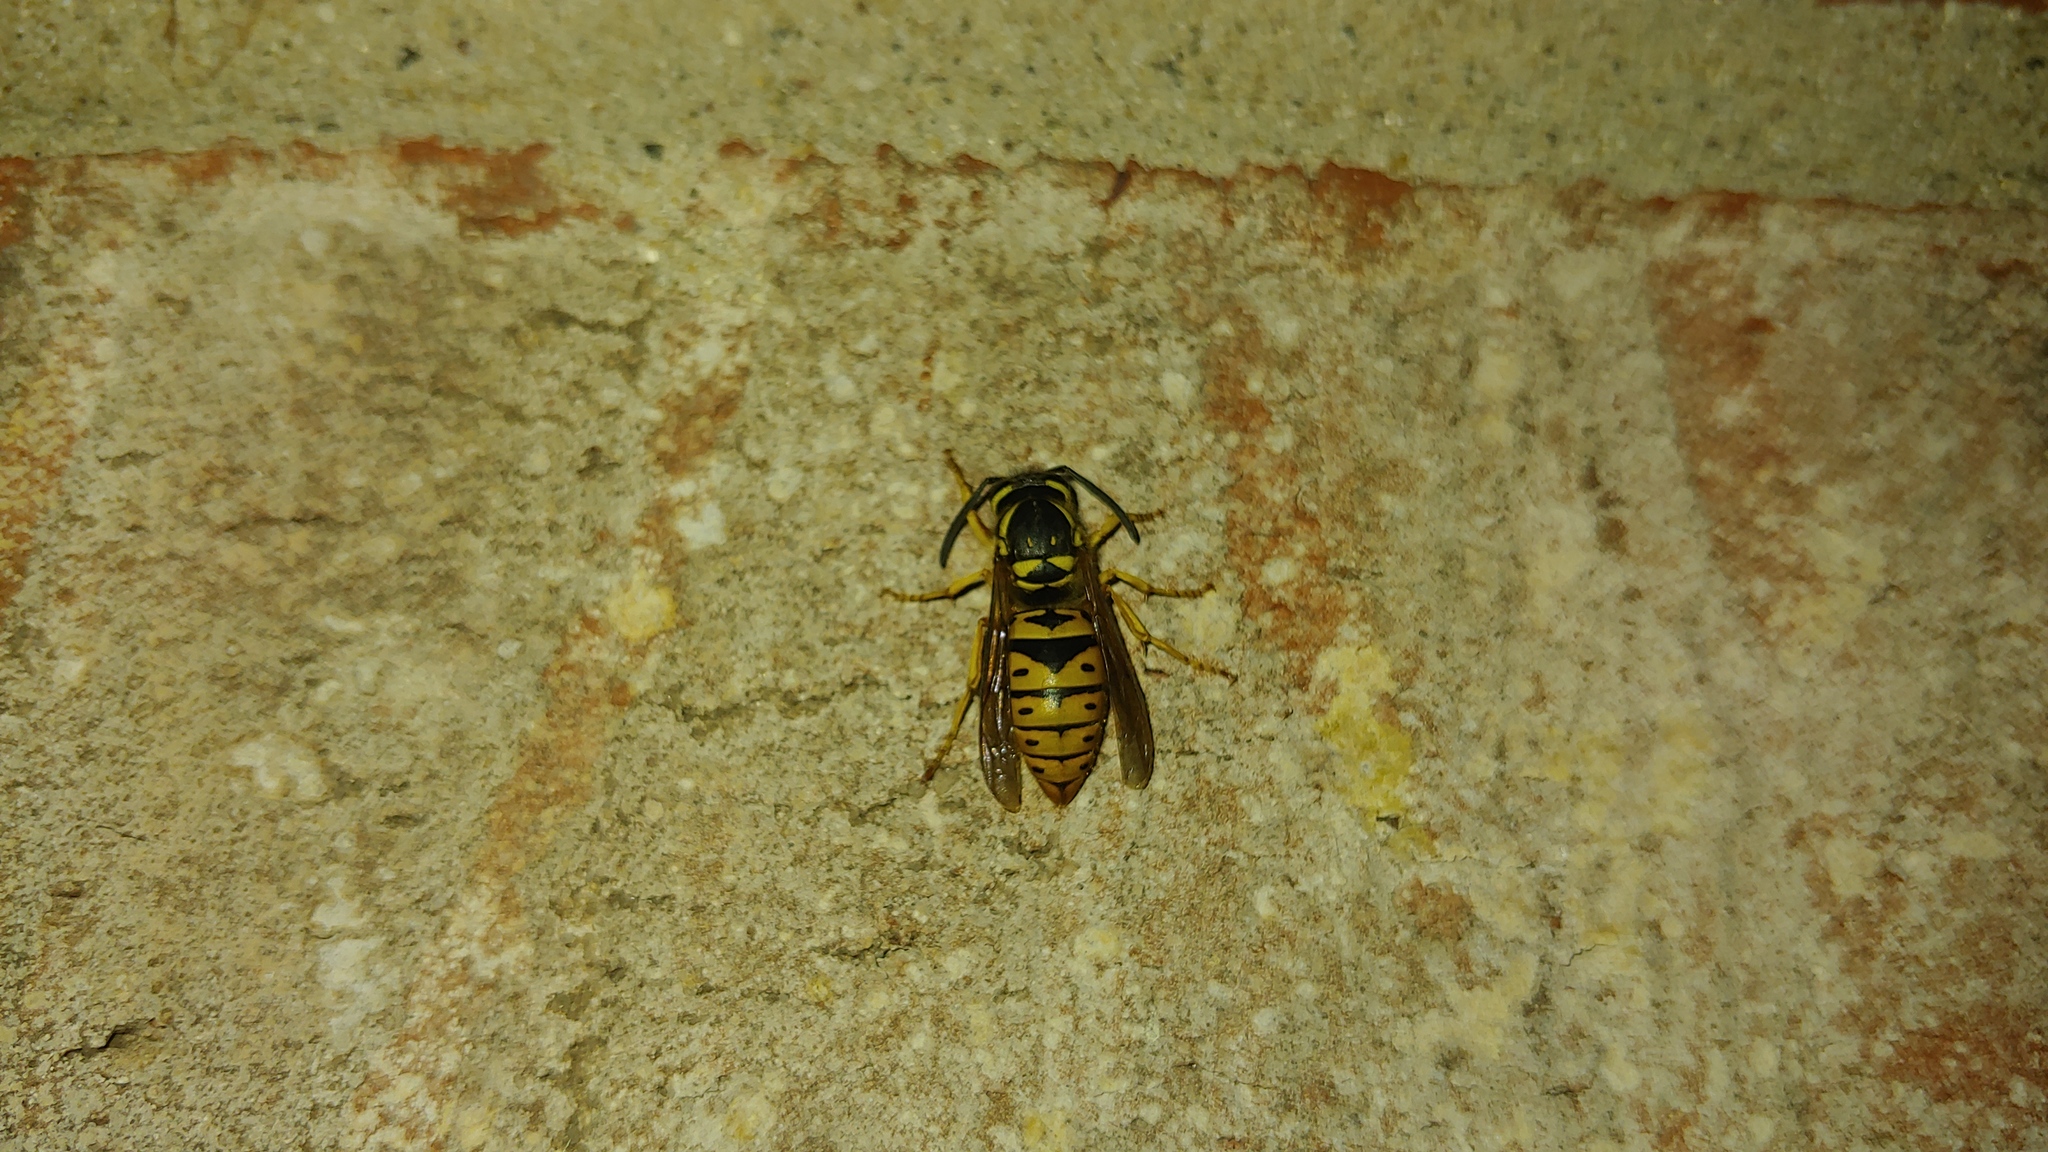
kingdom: Animalia
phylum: Arthropoda
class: Insecta
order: Hymenoptera
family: Vespidae
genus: Vespula
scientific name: Vespula maculifrons
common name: Eastern yellowjacket
